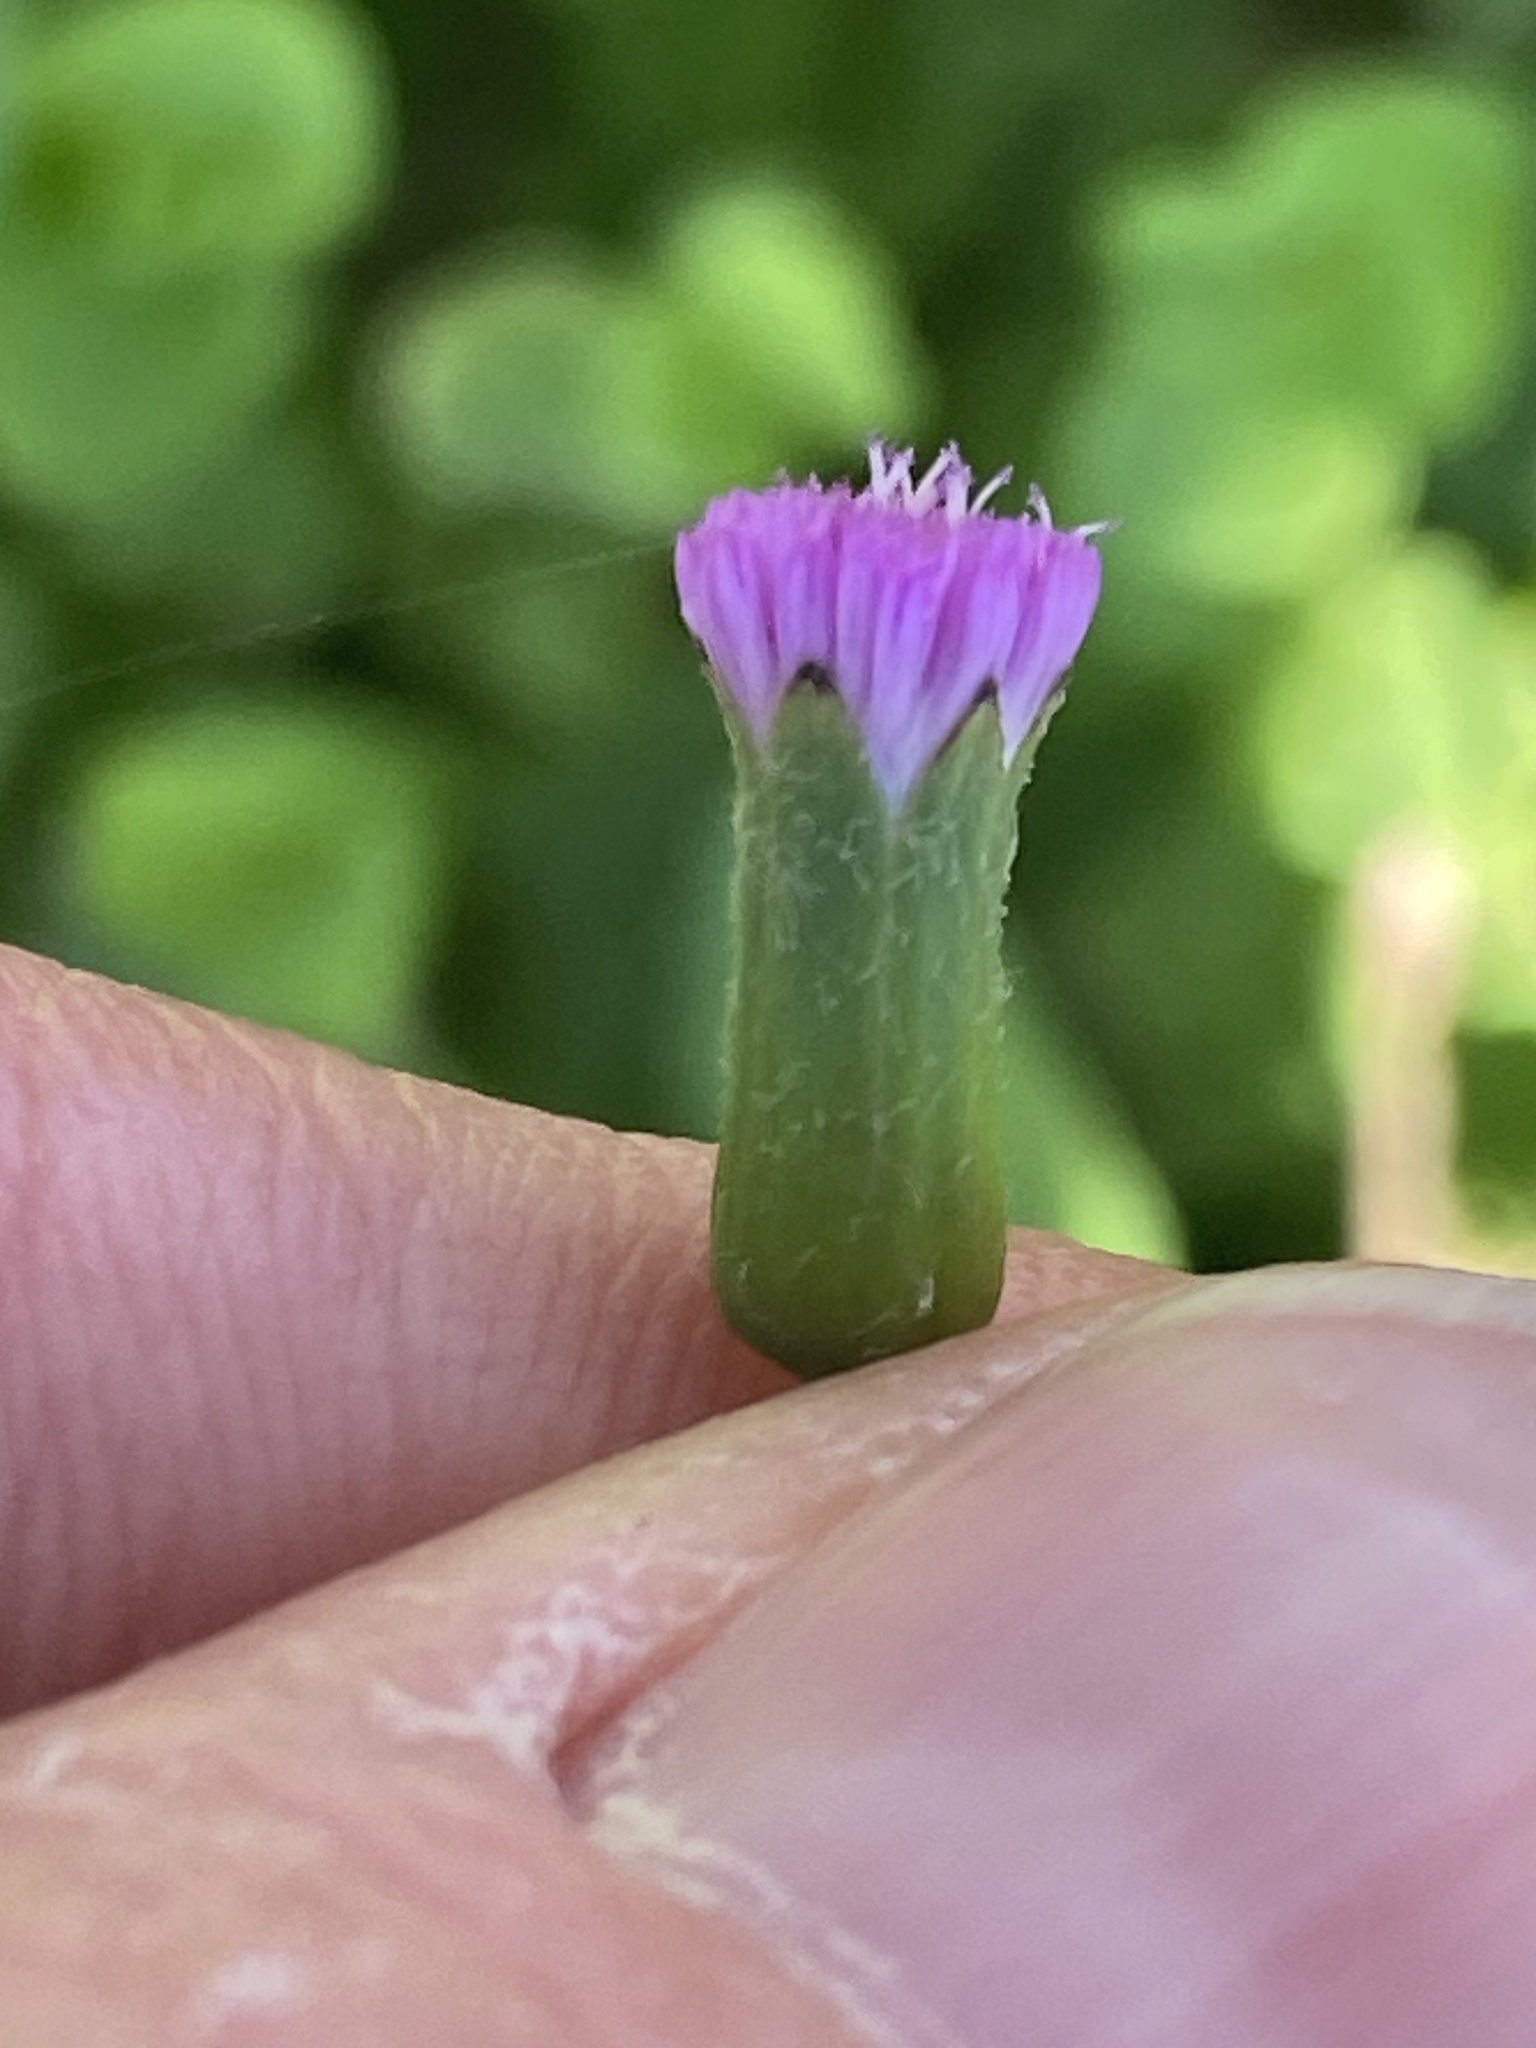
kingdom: Plantae
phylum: Tracheophyta
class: Magnoliopsida
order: Asterales
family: Asteraceae
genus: Emilia
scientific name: Emilia javanica
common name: Tassel-flower
